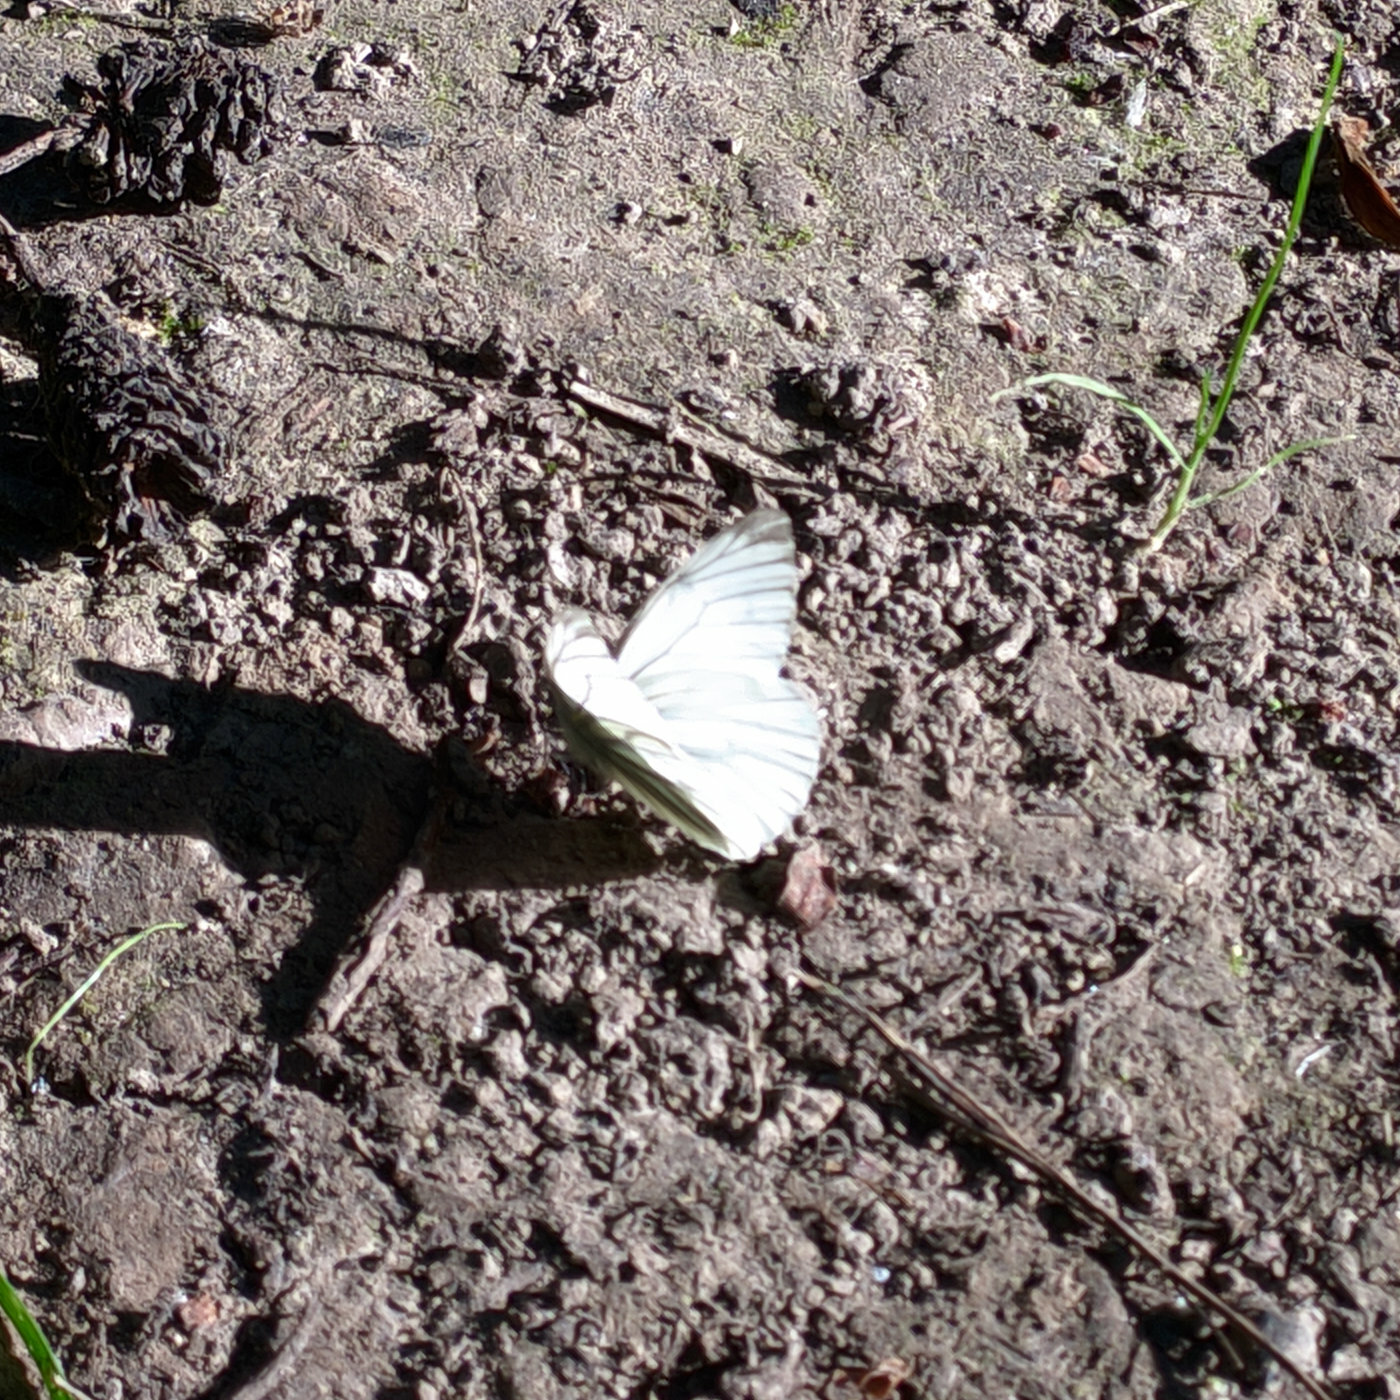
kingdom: Animalia
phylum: Arthropoda
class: Insecta
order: Lepidoptera
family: Pieridae
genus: Pieris
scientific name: Pieris napi
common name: Green-veined white
